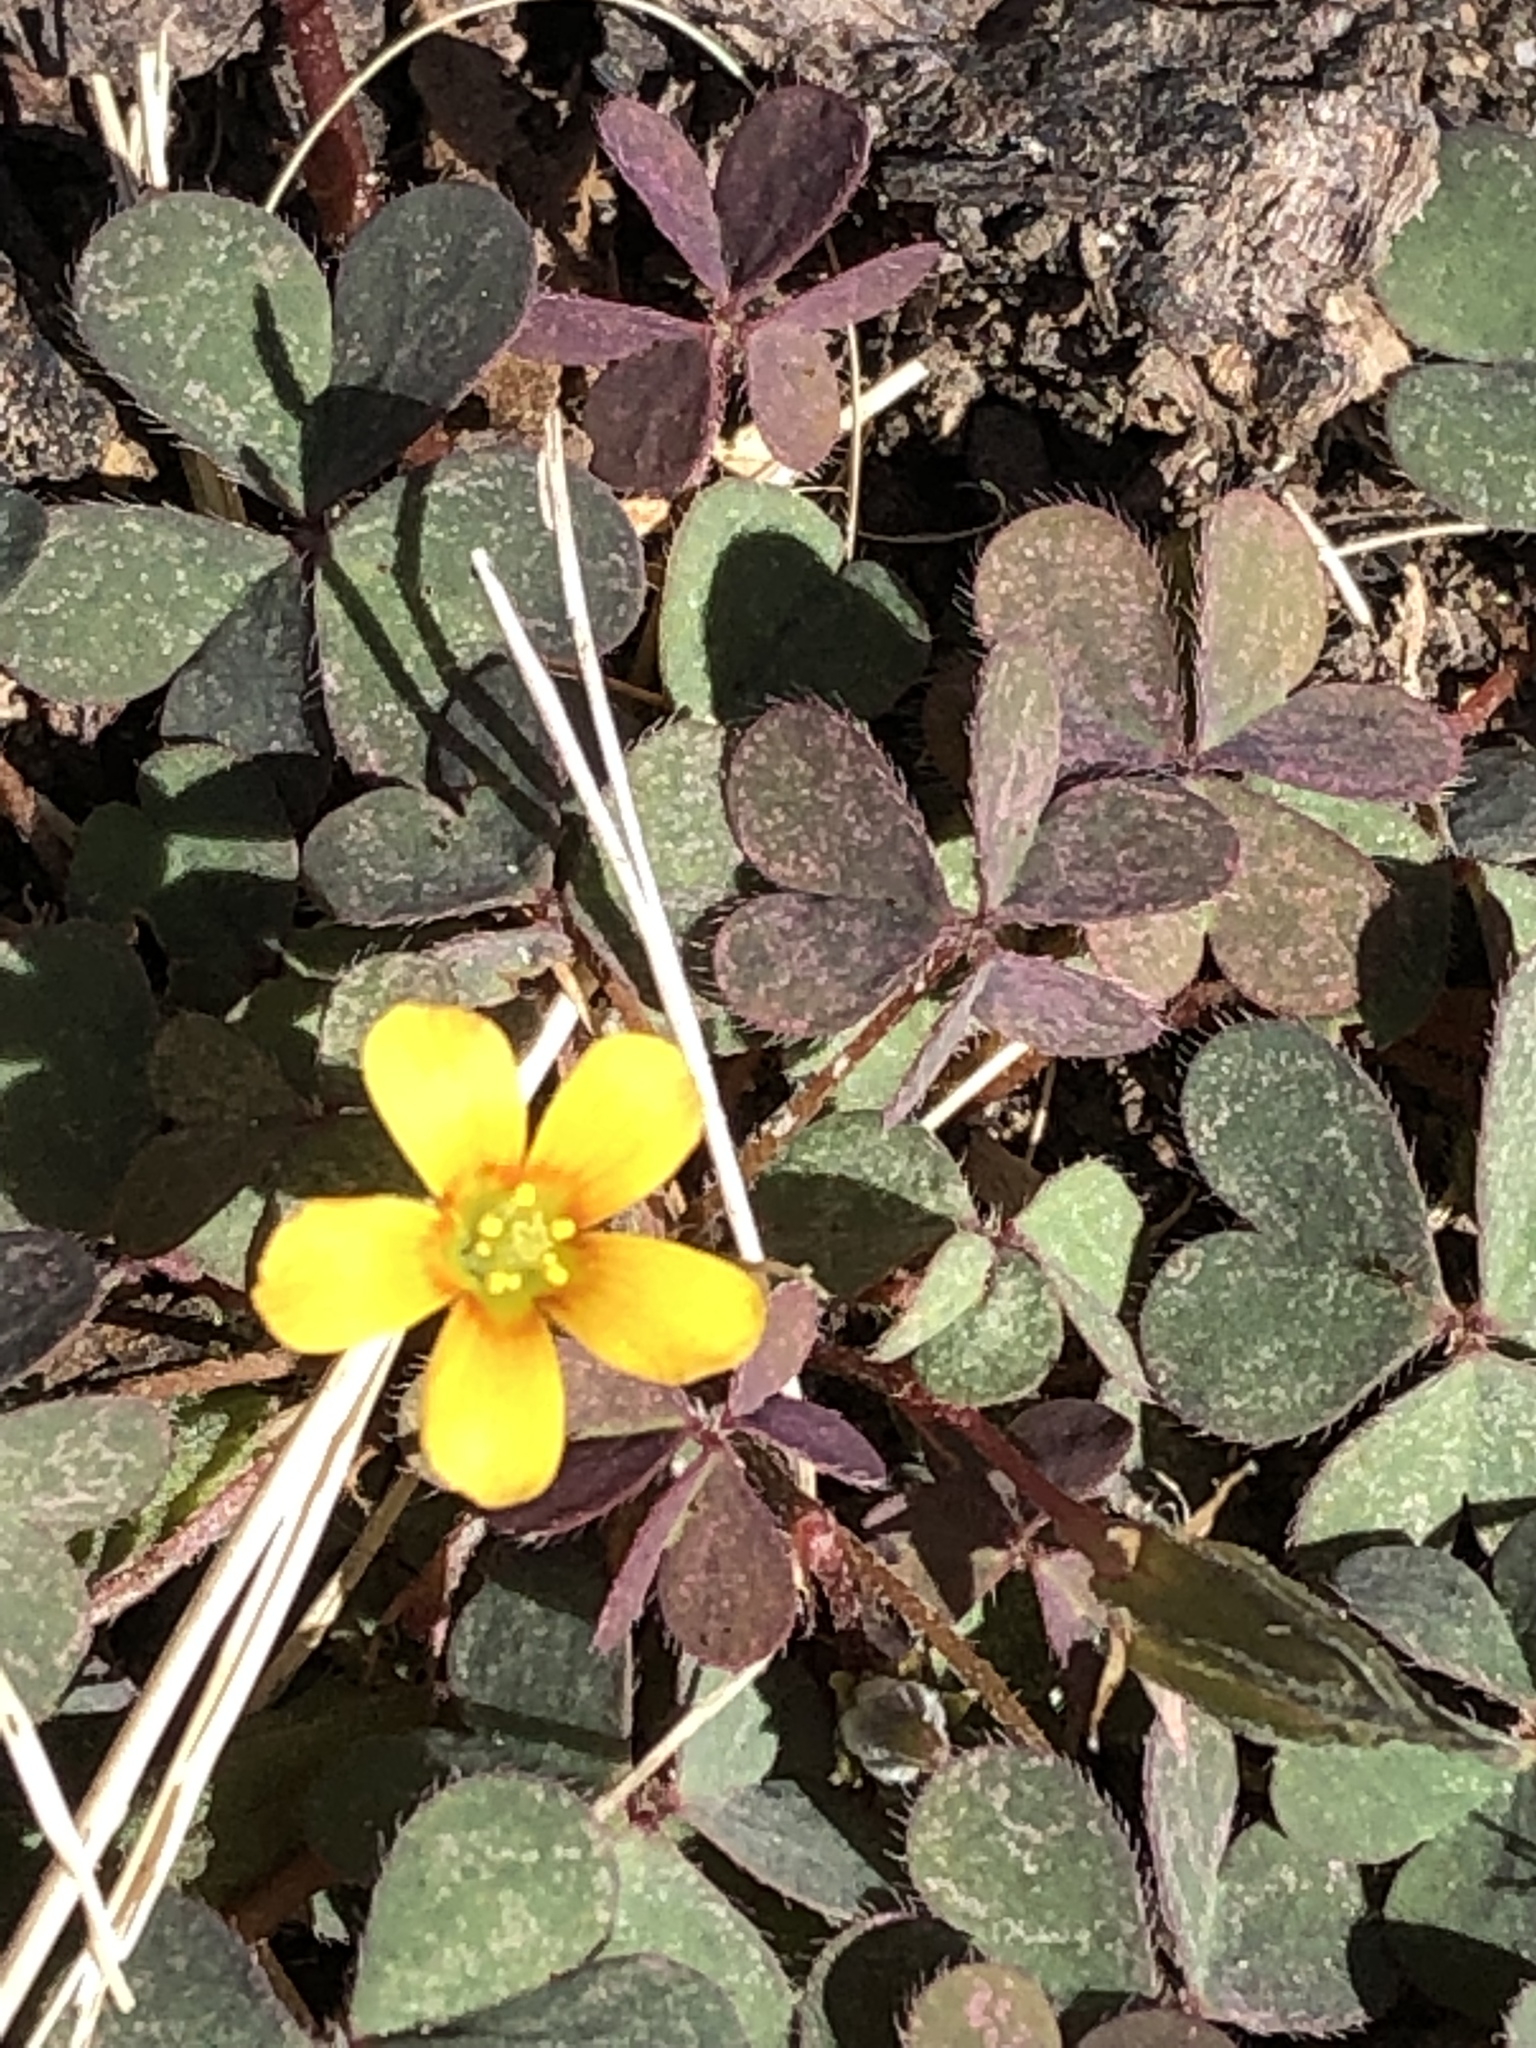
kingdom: Plantae
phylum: Tracheophyta
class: Magnoliopsida
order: Oxalidales
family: Oxalidaceae
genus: Oxalis
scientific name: Oxalis corniculata
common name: Procumbent yellow-sorrel
